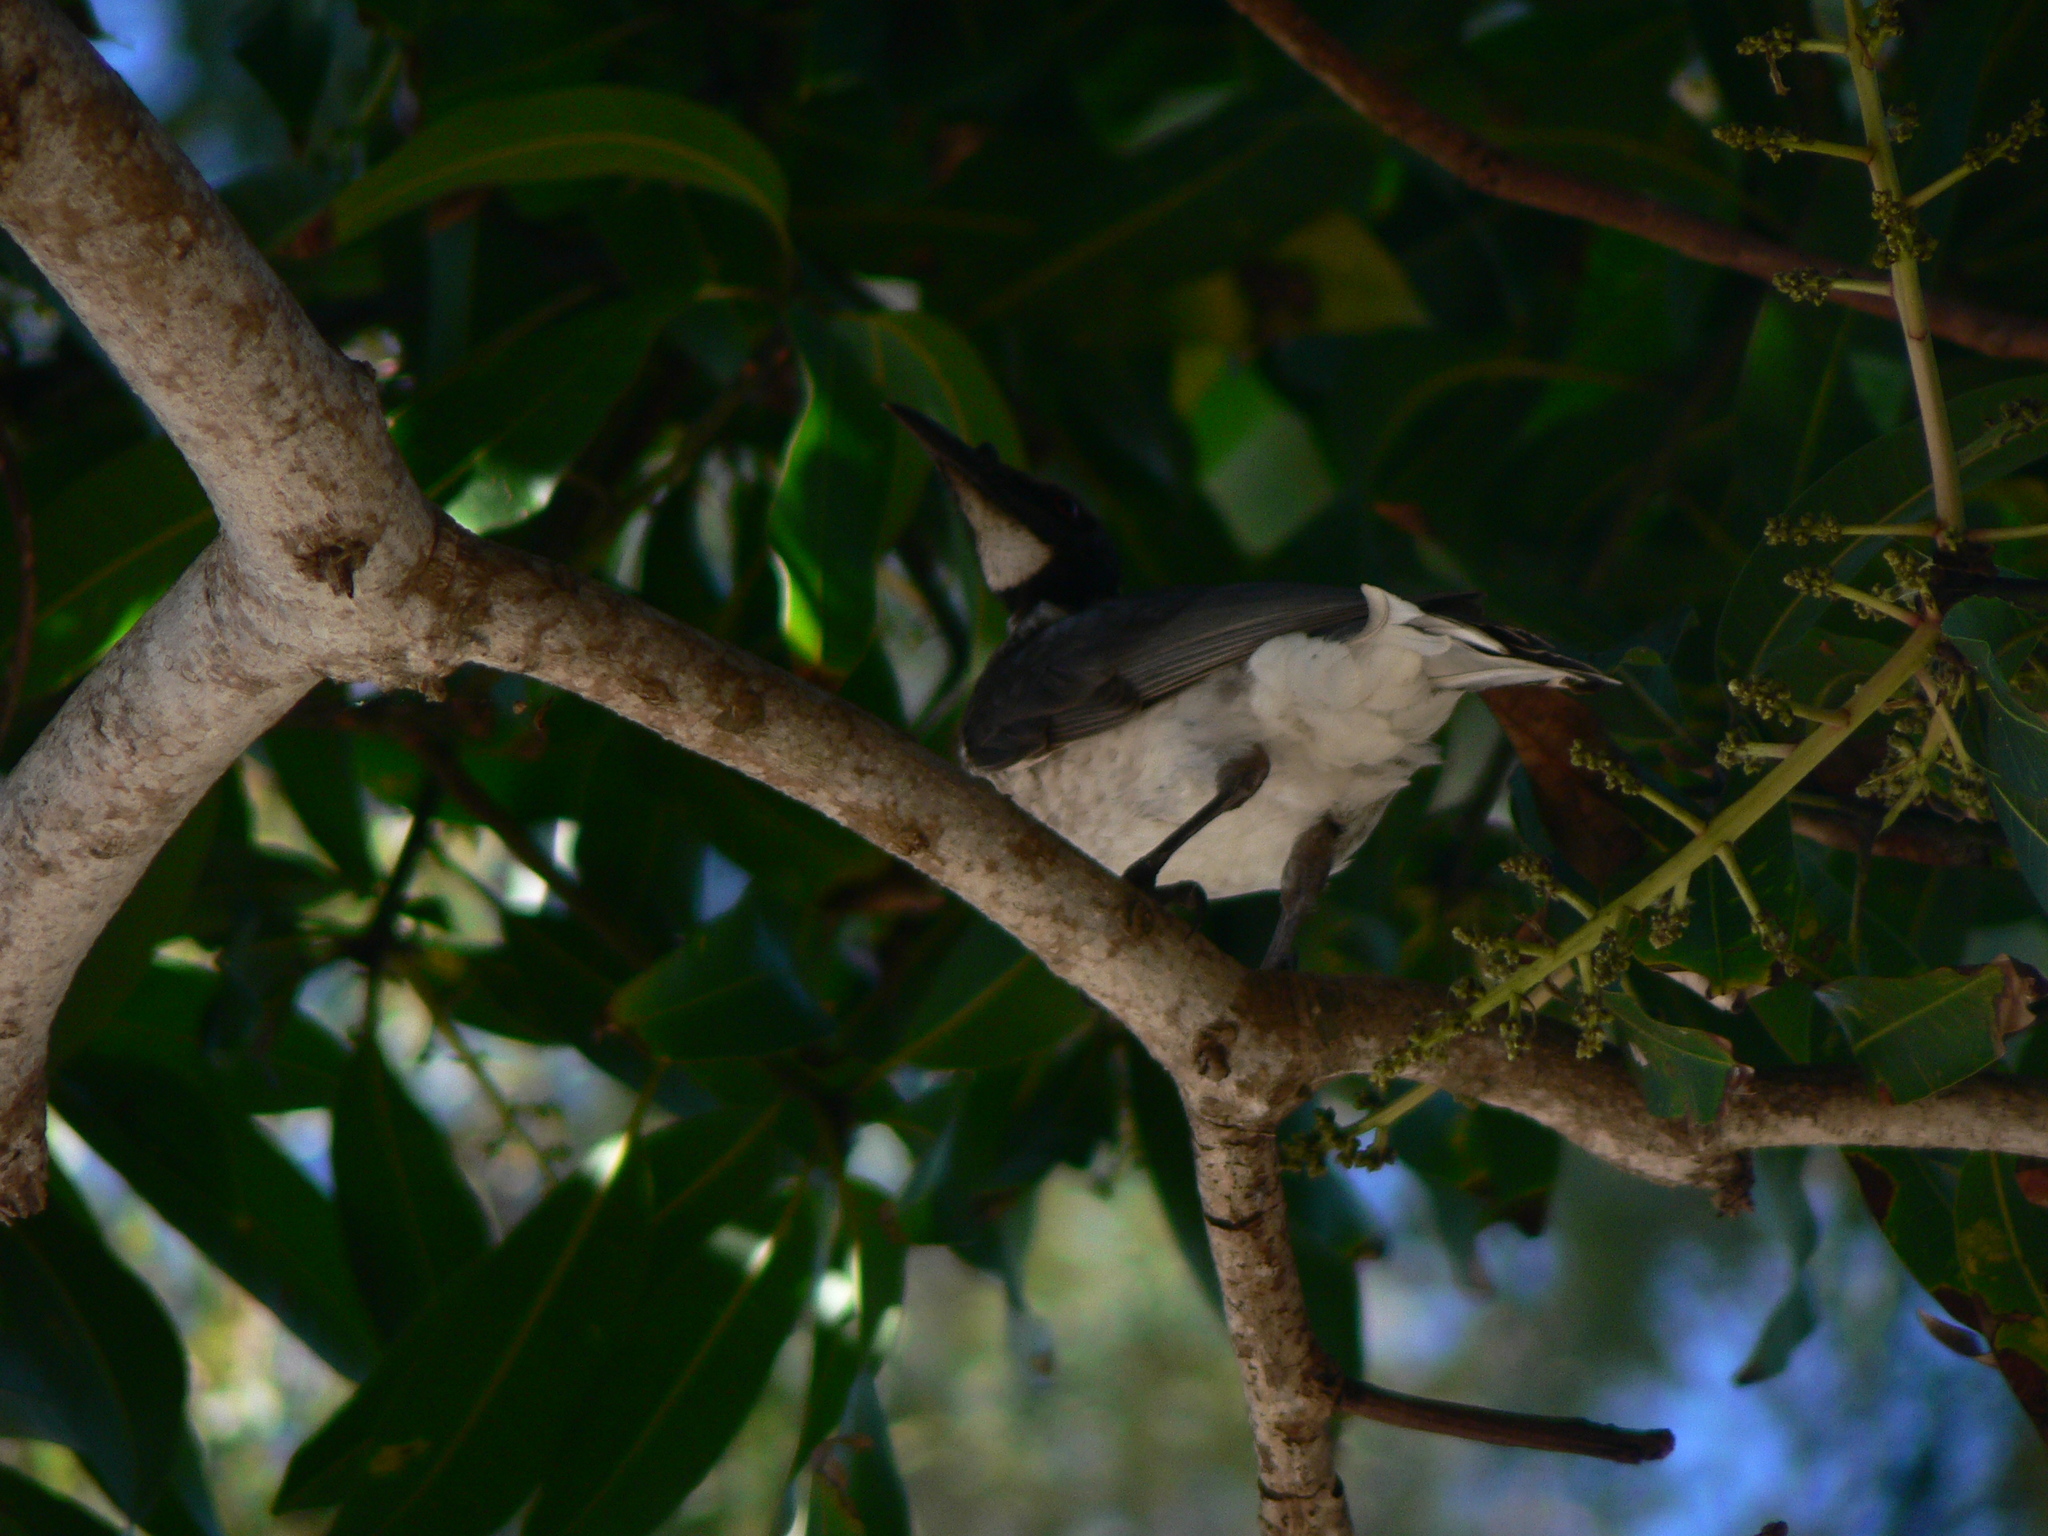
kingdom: Animalia
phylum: Chordata
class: Aves
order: Passeriformes
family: Meliphagidae
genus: Philemon
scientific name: Philemon corniculatus
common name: Noisy friarbird
